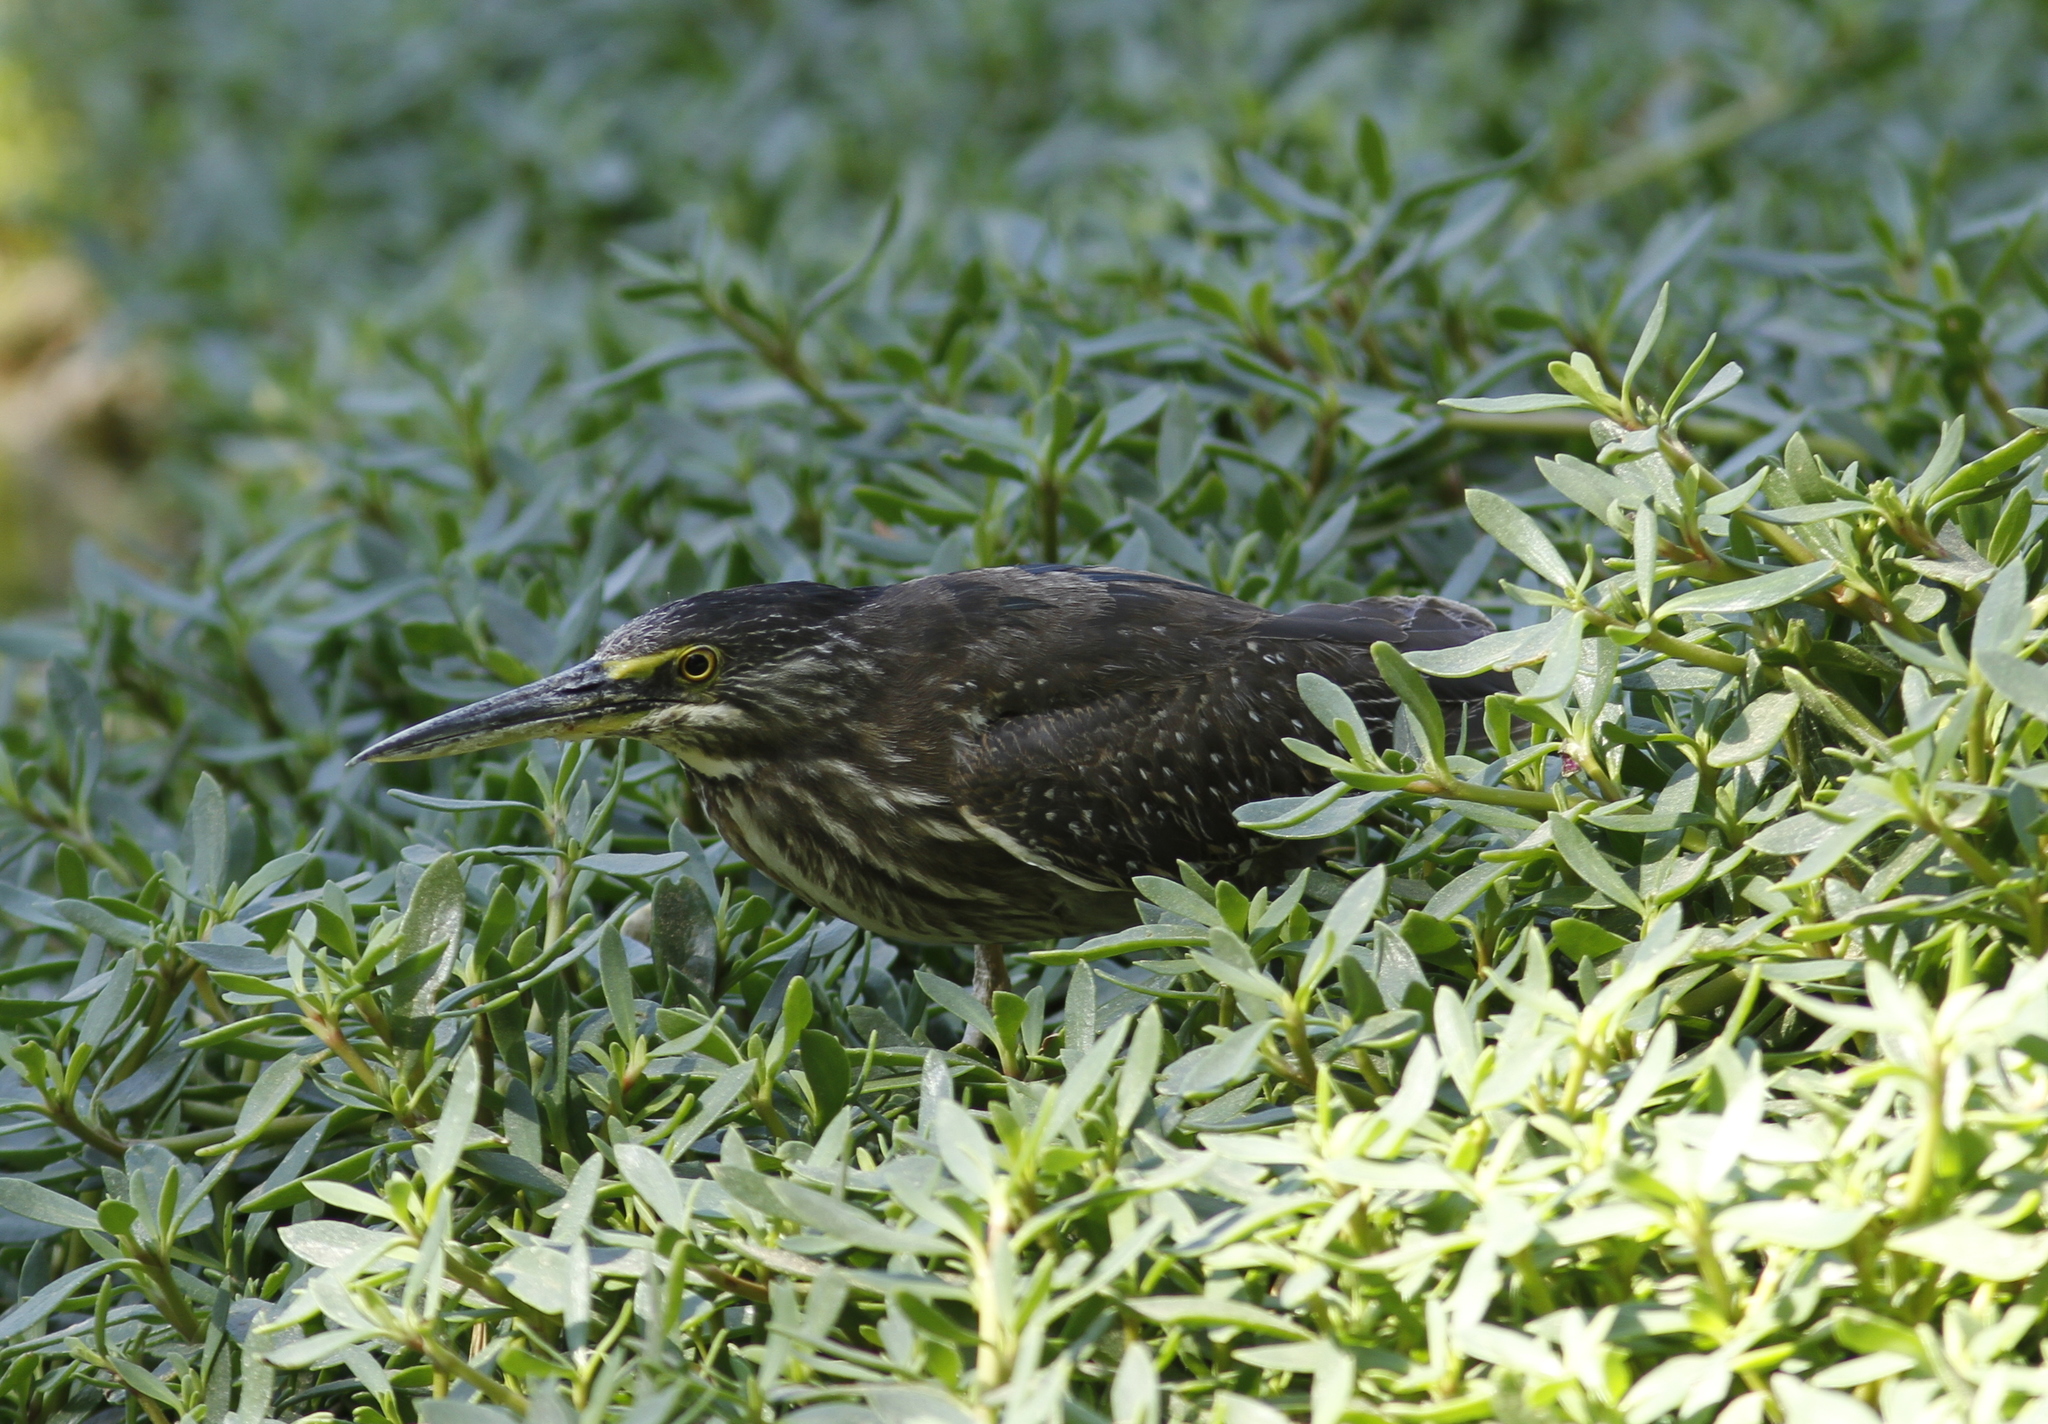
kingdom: Animalia
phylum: Chordata
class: Aves
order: Pelecaniformes
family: Ardeidae
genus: Butorides
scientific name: Butorides striata
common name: Striated heron
